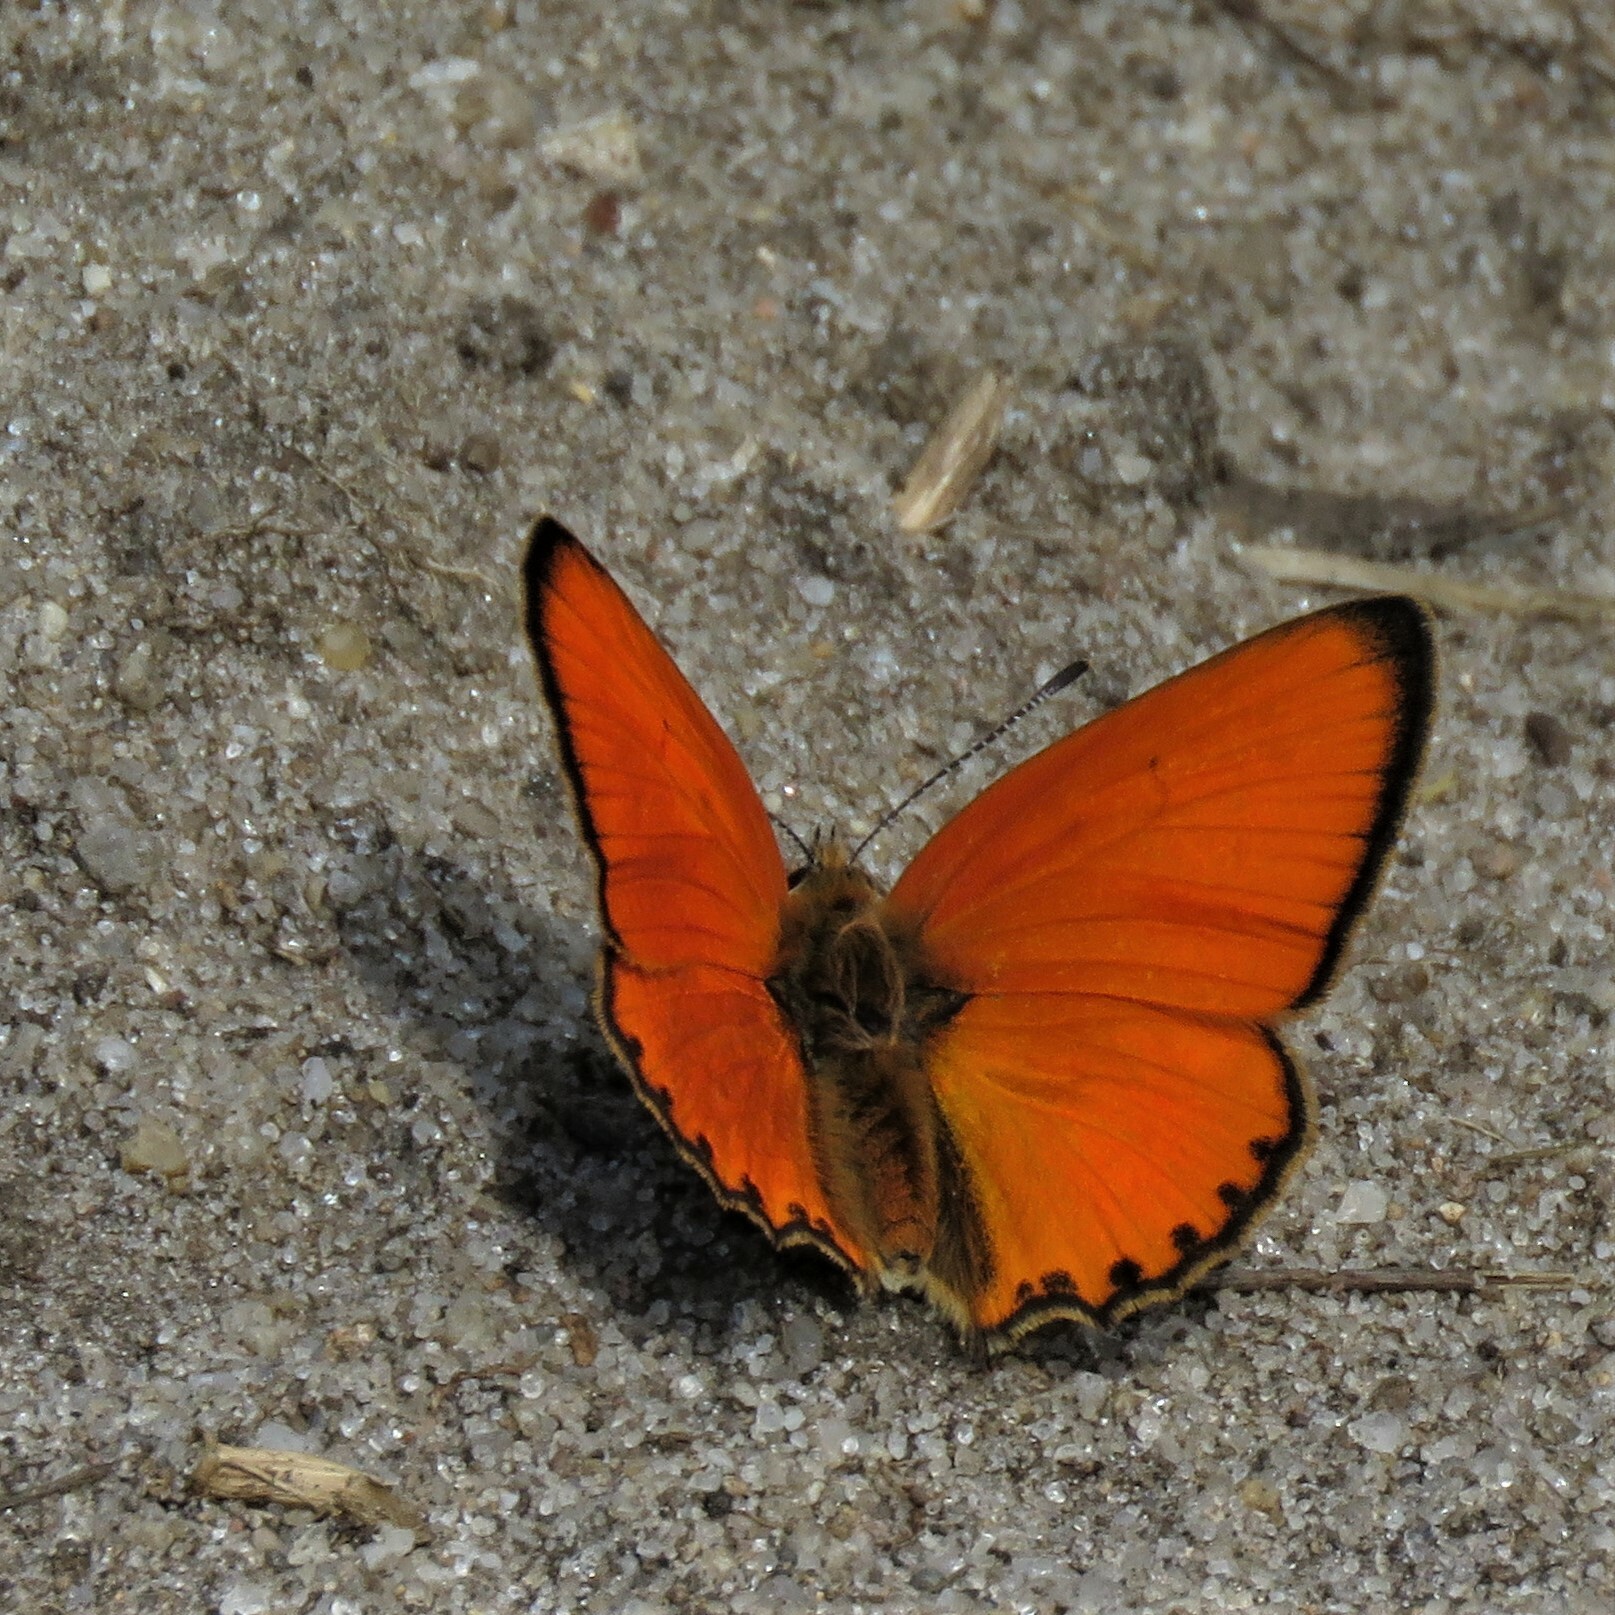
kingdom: Animalia
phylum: Arthropoda
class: Insecta
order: Lepidoptera
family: Lycaenidae
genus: Lycaena
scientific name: Lycaena virgaureae
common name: Scarce copper
